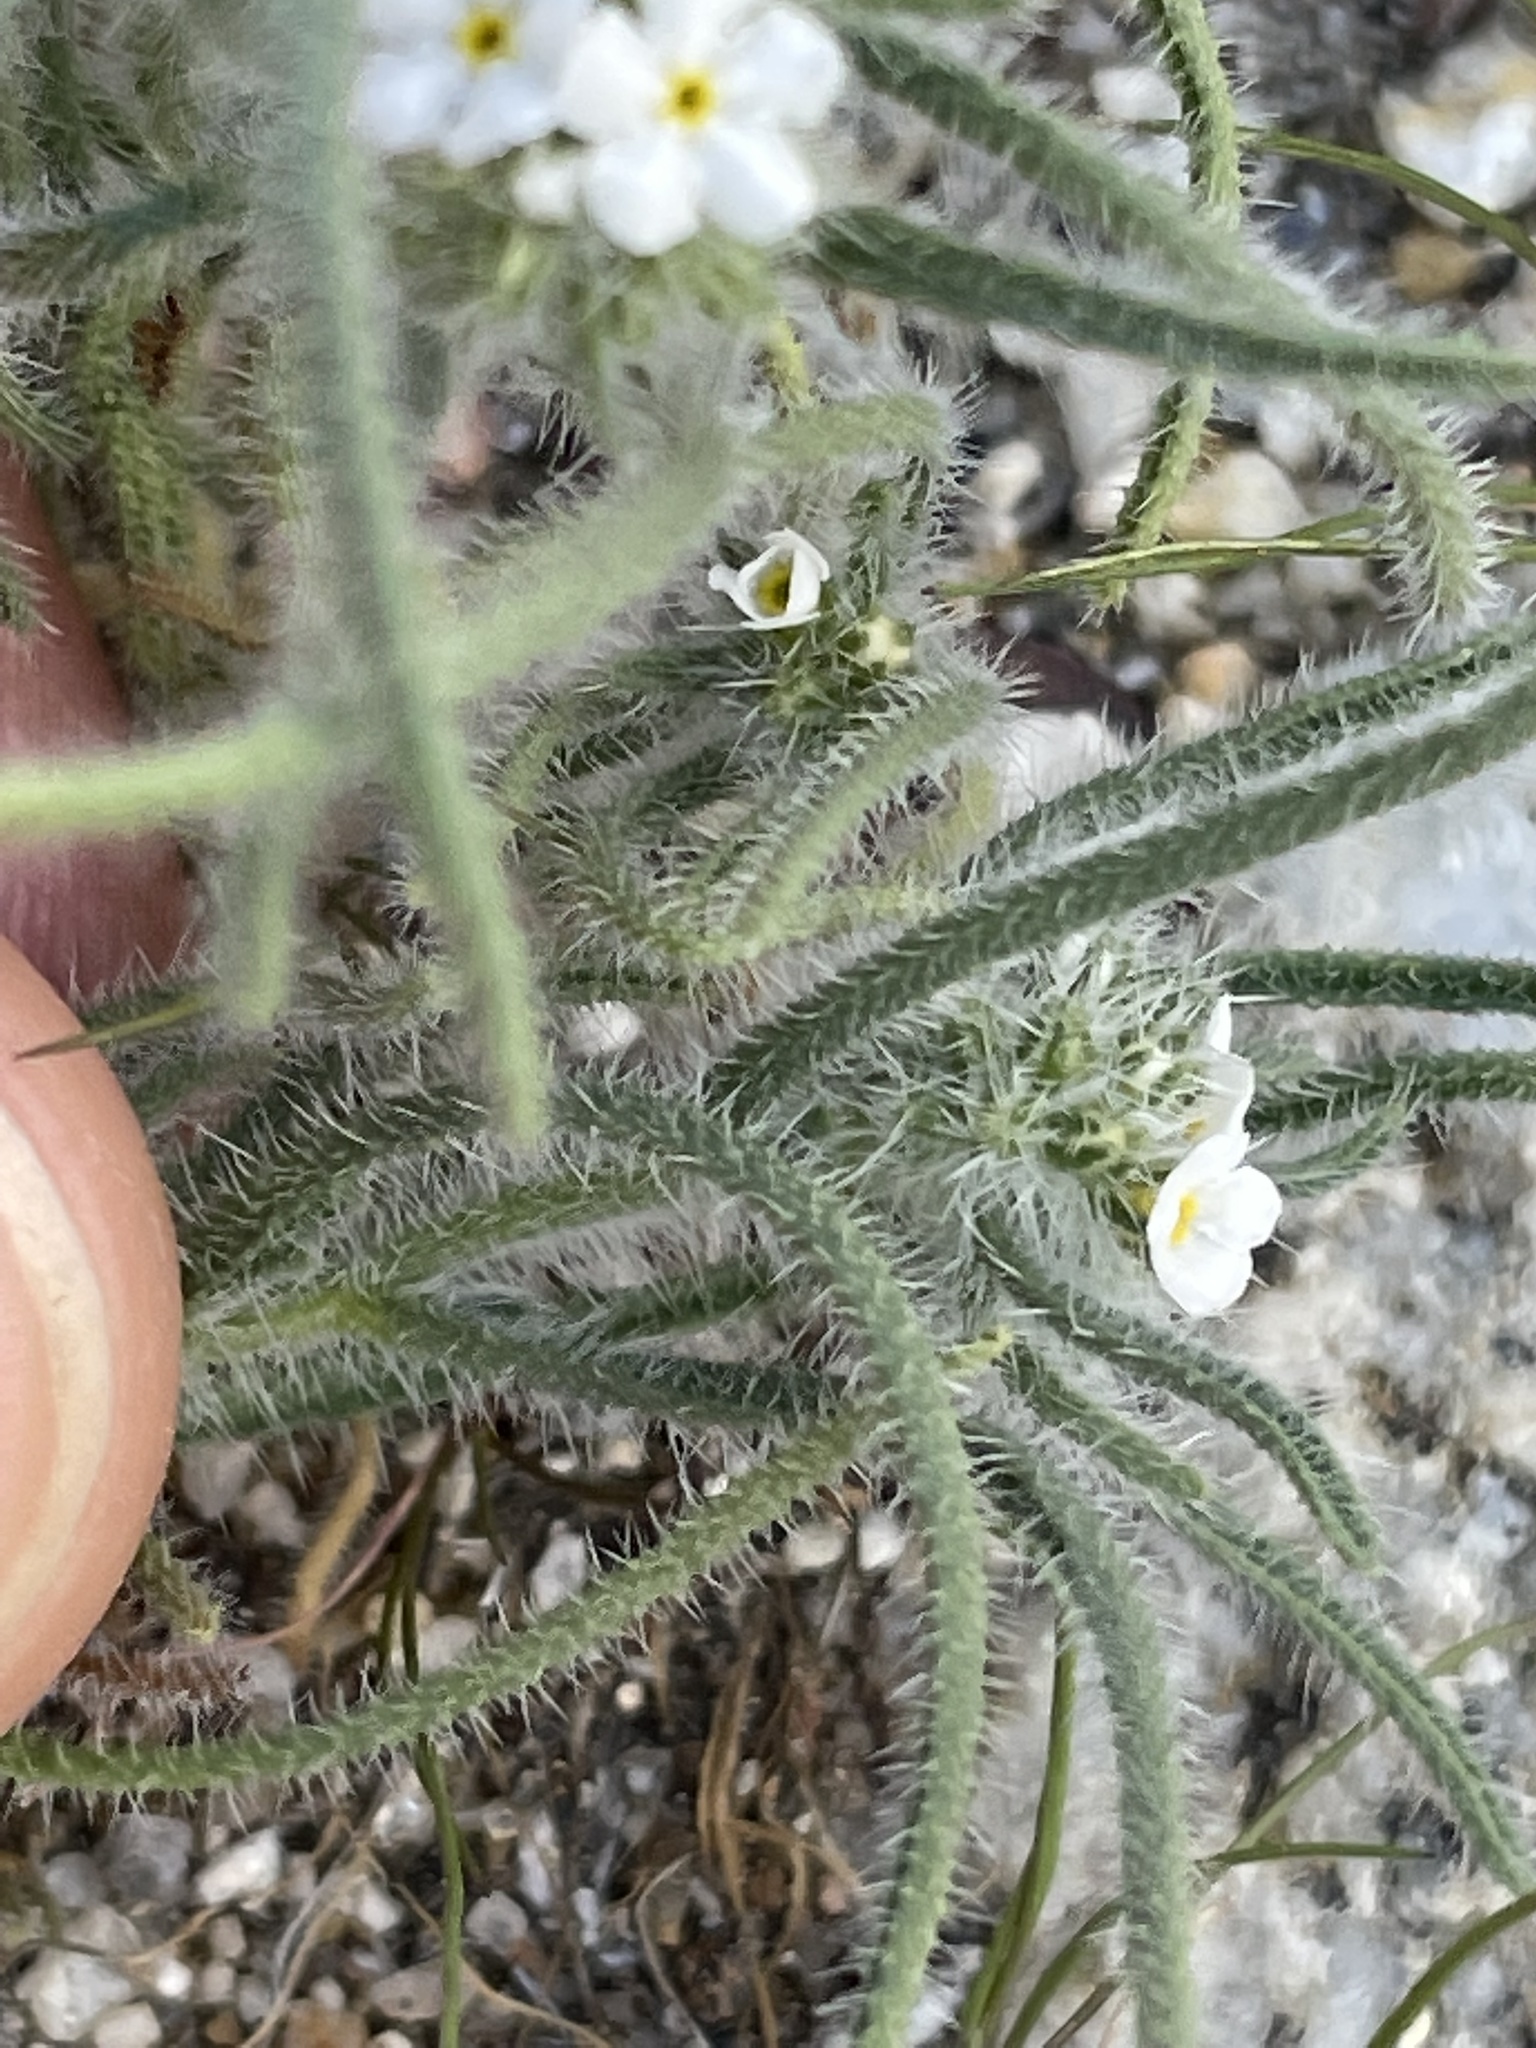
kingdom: Plantae
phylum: Tracheophyta
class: Magnoliopsida
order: Boraginales
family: Boraginaceae
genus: Johnstonella
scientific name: Johnstonella angustifolia
